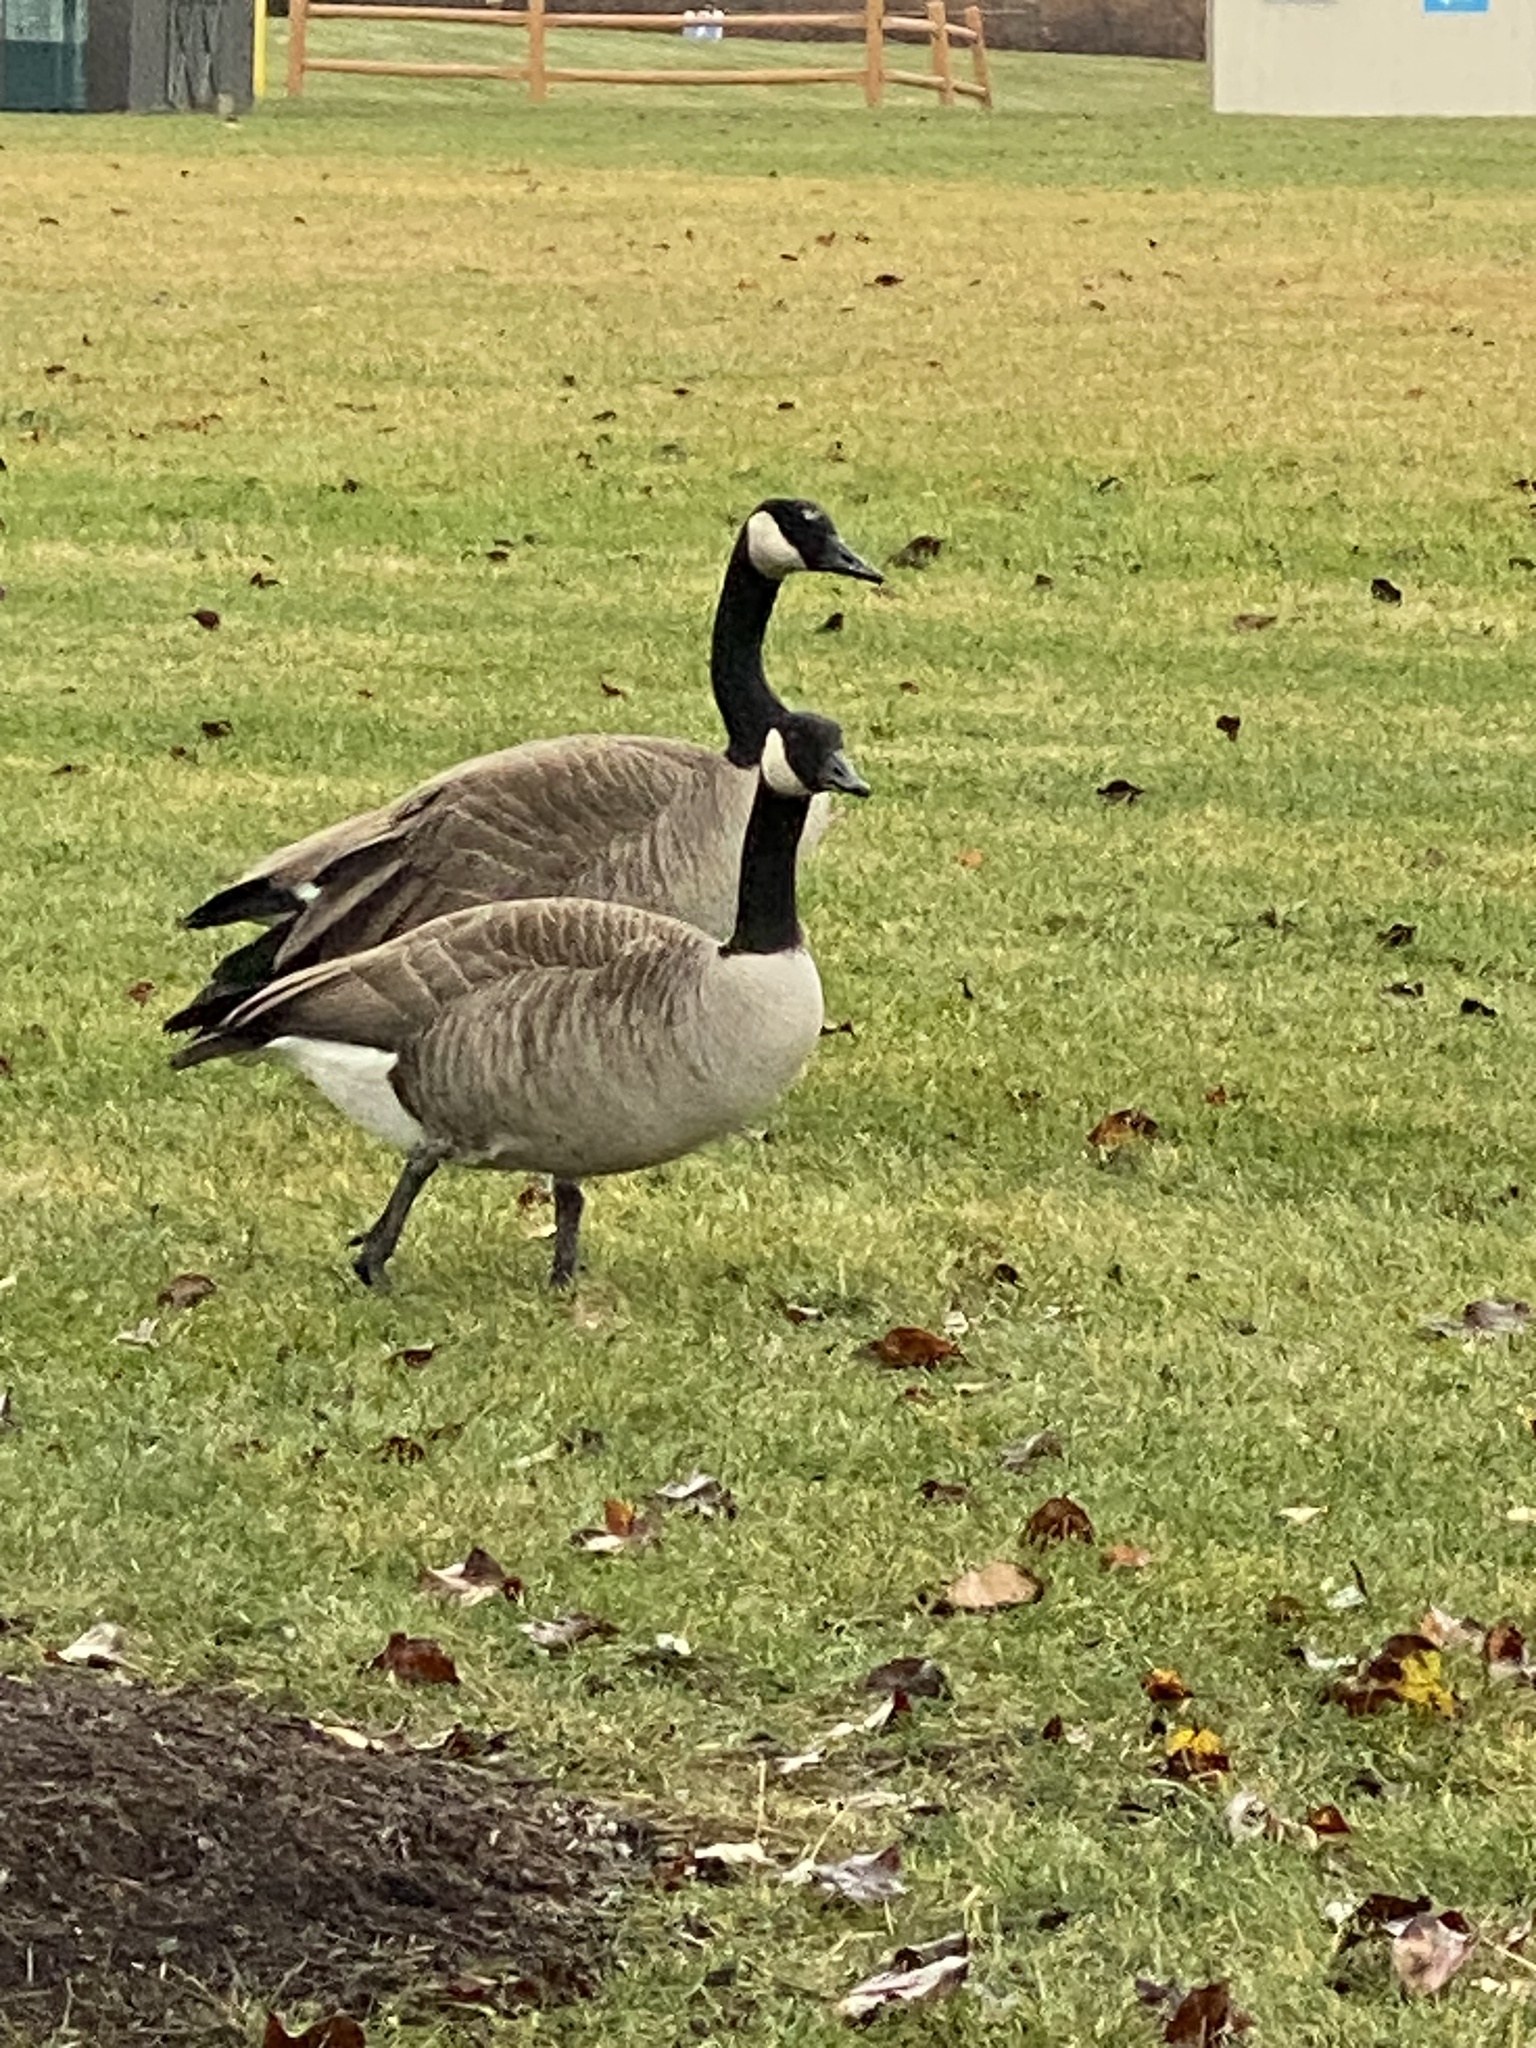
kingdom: Animalia
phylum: Chordata
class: Aves
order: Anseriformes
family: Anatidae
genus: Branta
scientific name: Branta canadensis
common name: Canada goose
